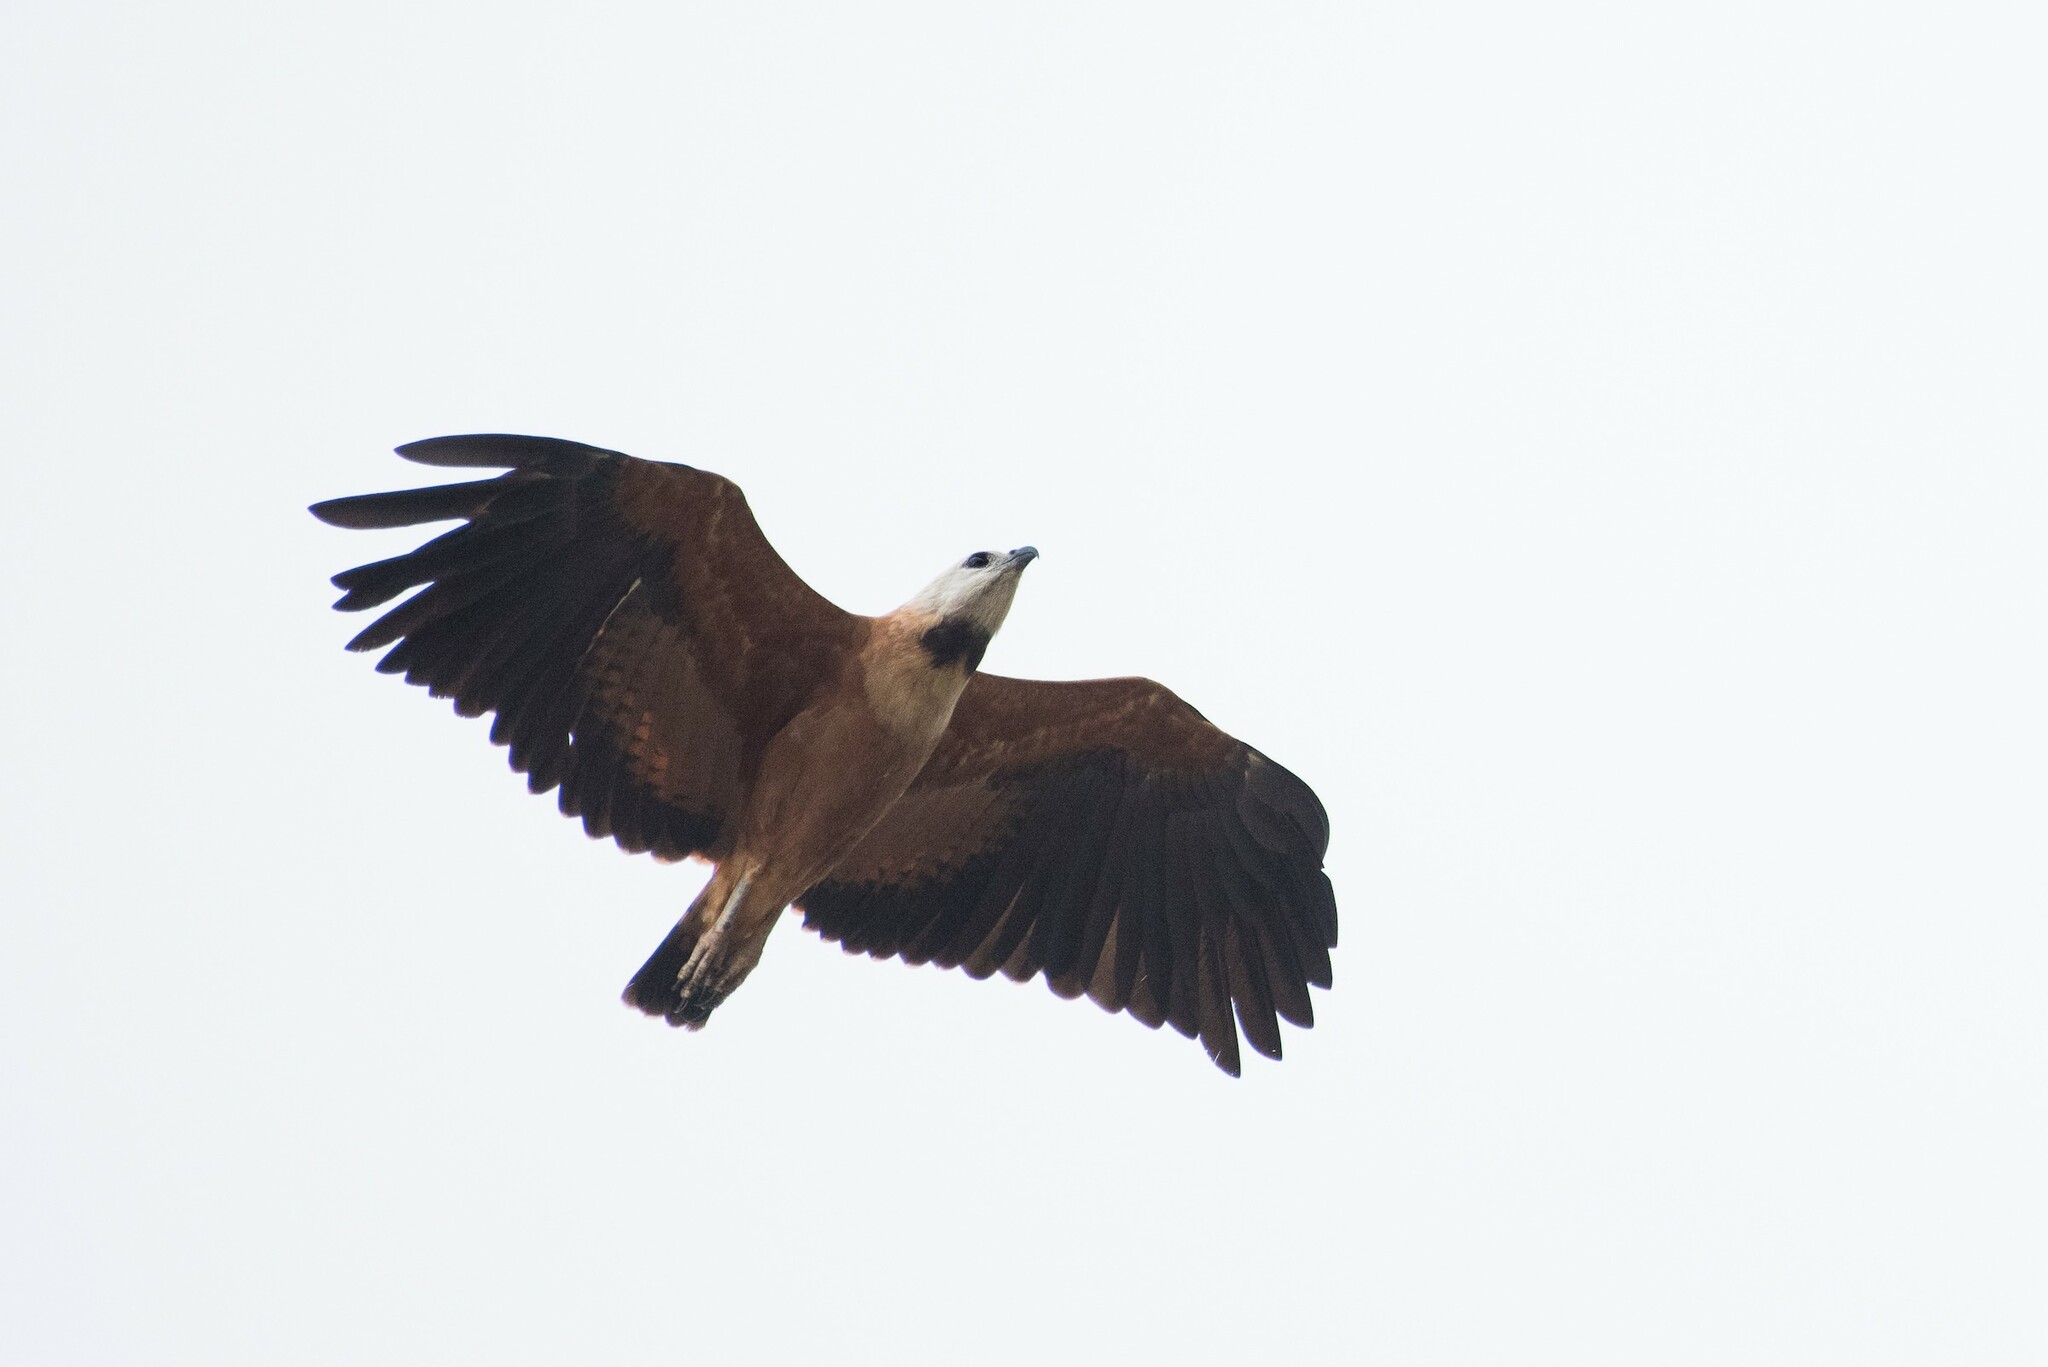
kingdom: Animalia
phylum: Chordata
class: Aves
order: Accipitriformes
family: Accipitridae
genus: Busarellus
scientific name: Busarellus nigricollis
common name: Black-collared hawk
